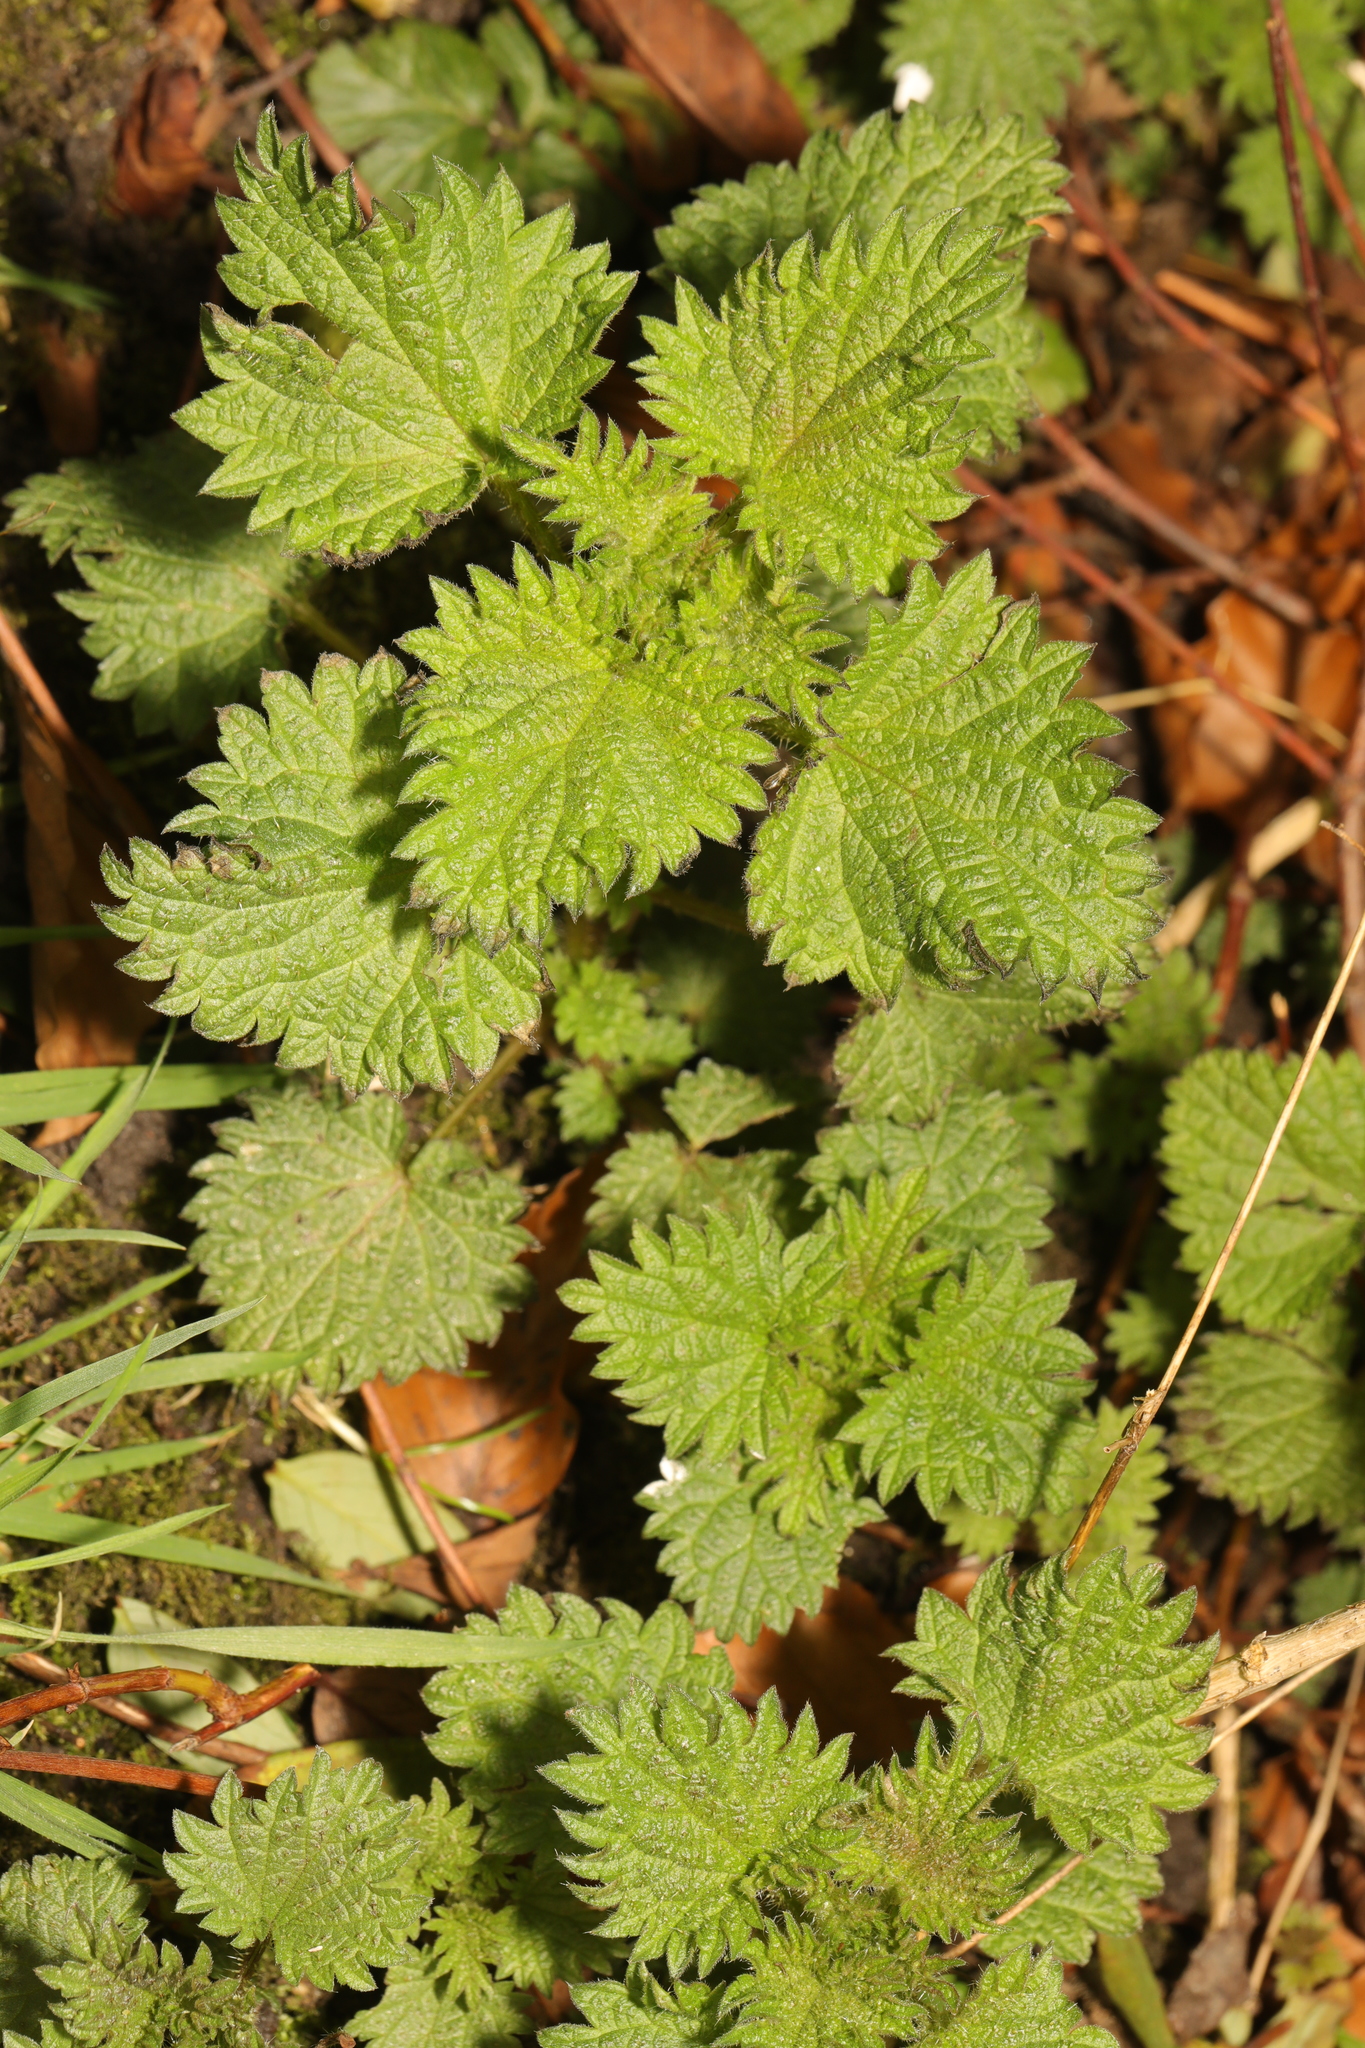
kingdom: Plantae
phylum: Tracheophyta
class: Magnoliopsida
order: Rosales
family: Urticaceae
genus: Urtica
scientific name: Urtica dioica
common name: Common nettle
